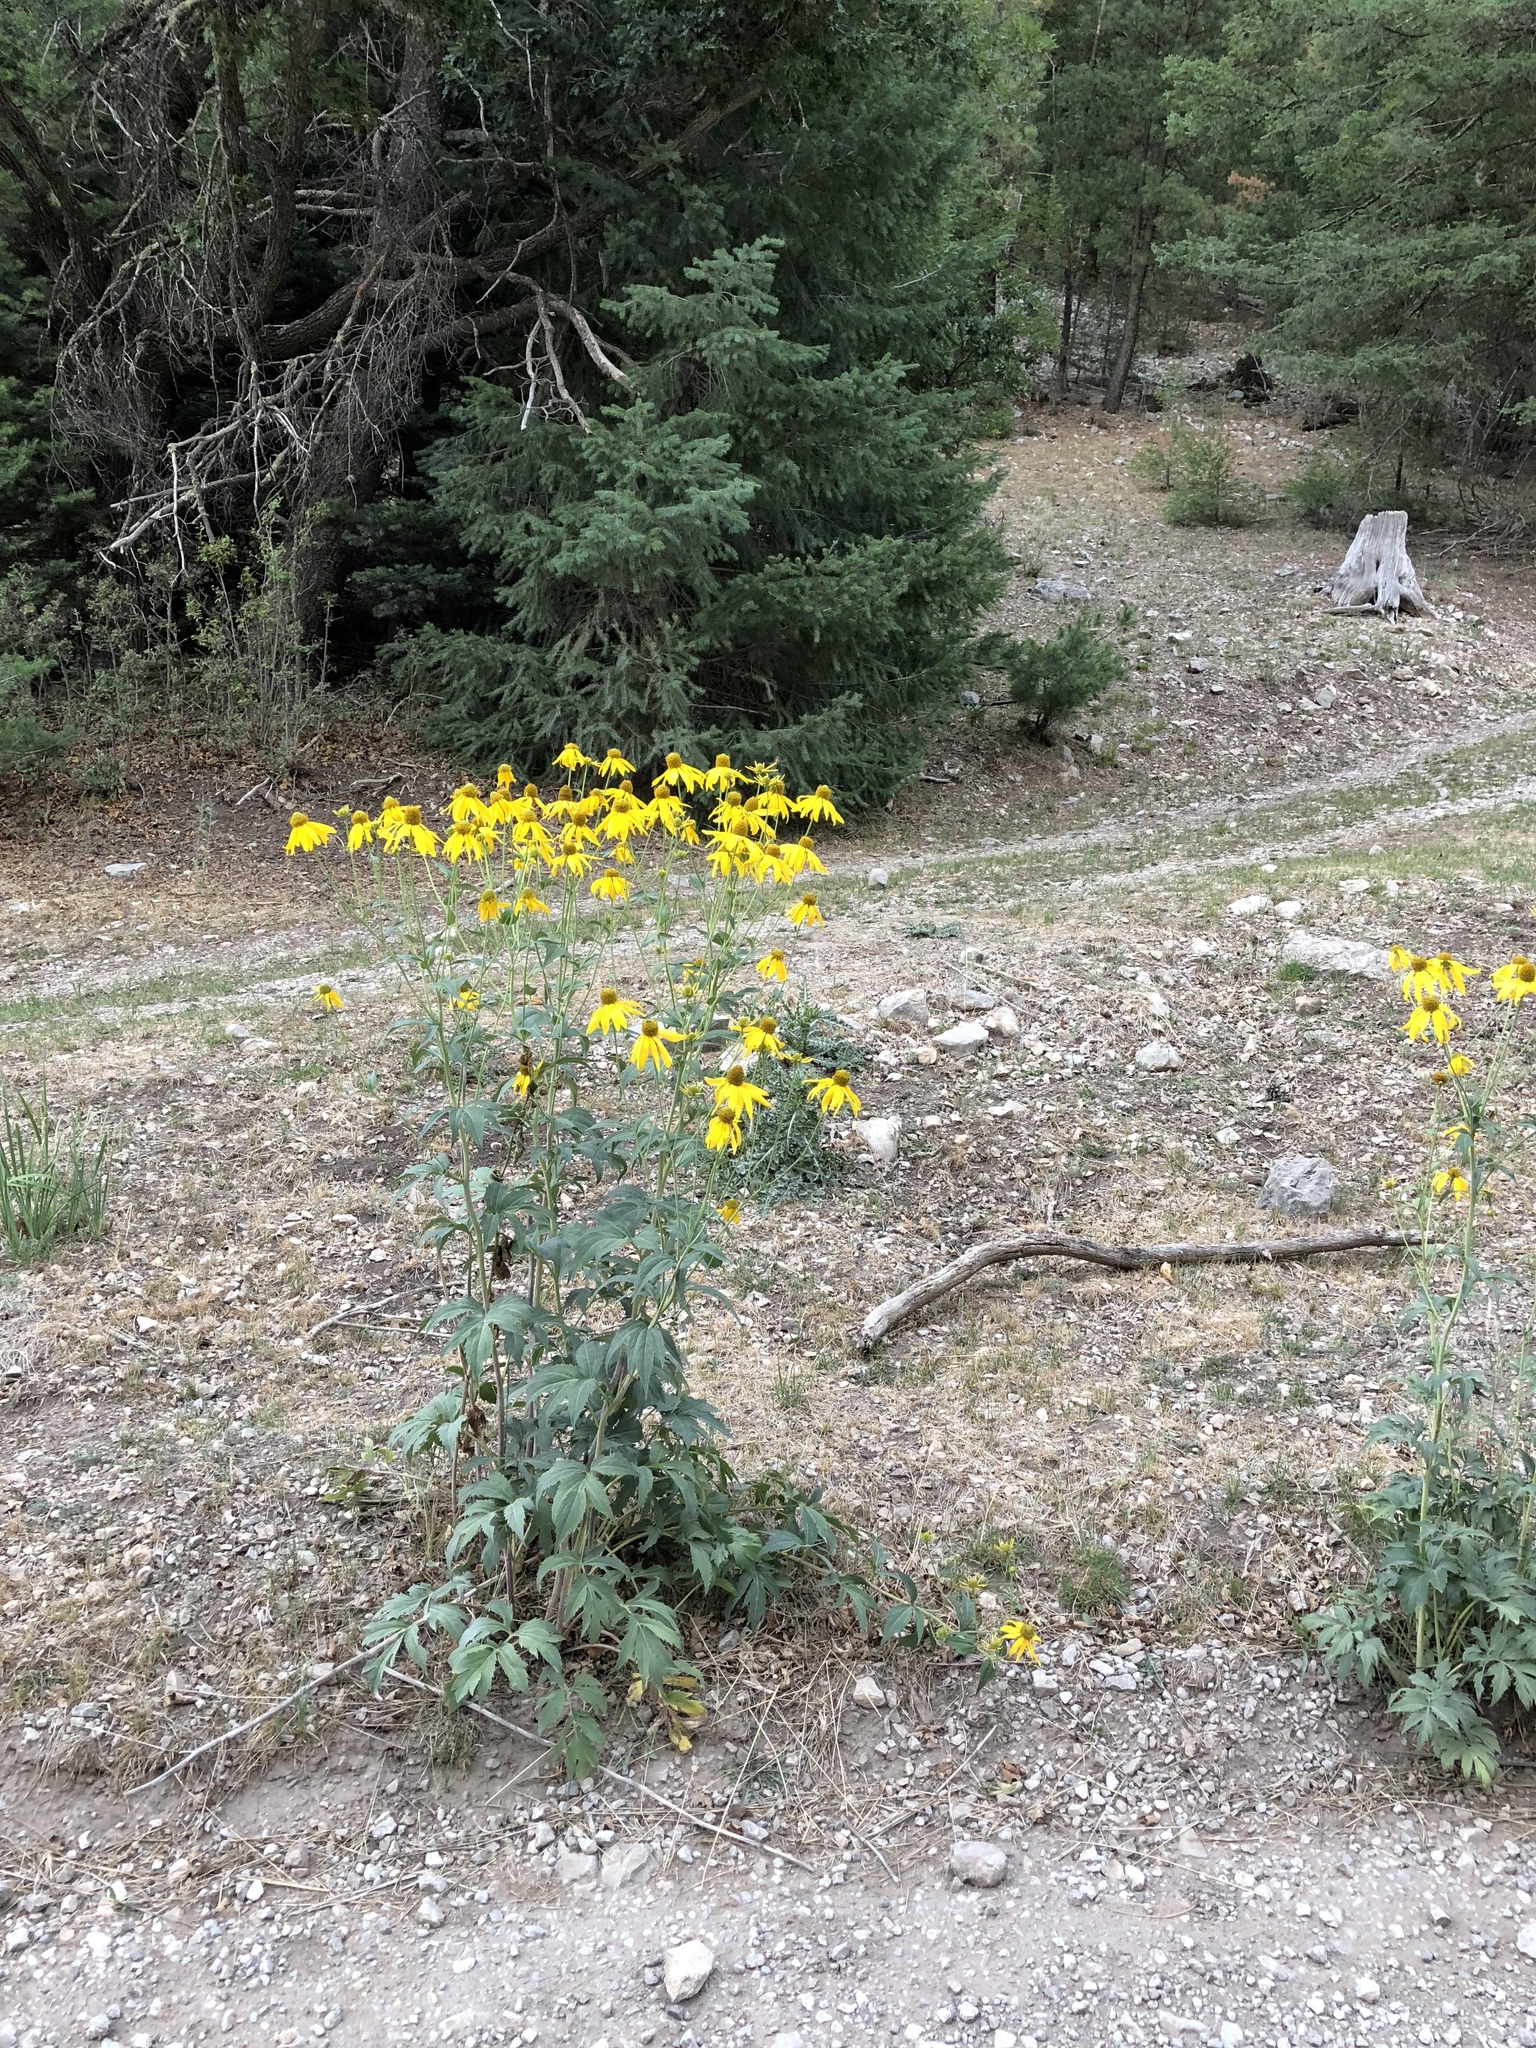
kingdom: Plantae
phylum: Tracheophyta
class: Magnoliopsida
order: Asterales
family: Asteraceae
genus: Rudbeckia
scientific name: Rudbeckia laciniata
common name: Coneflower
